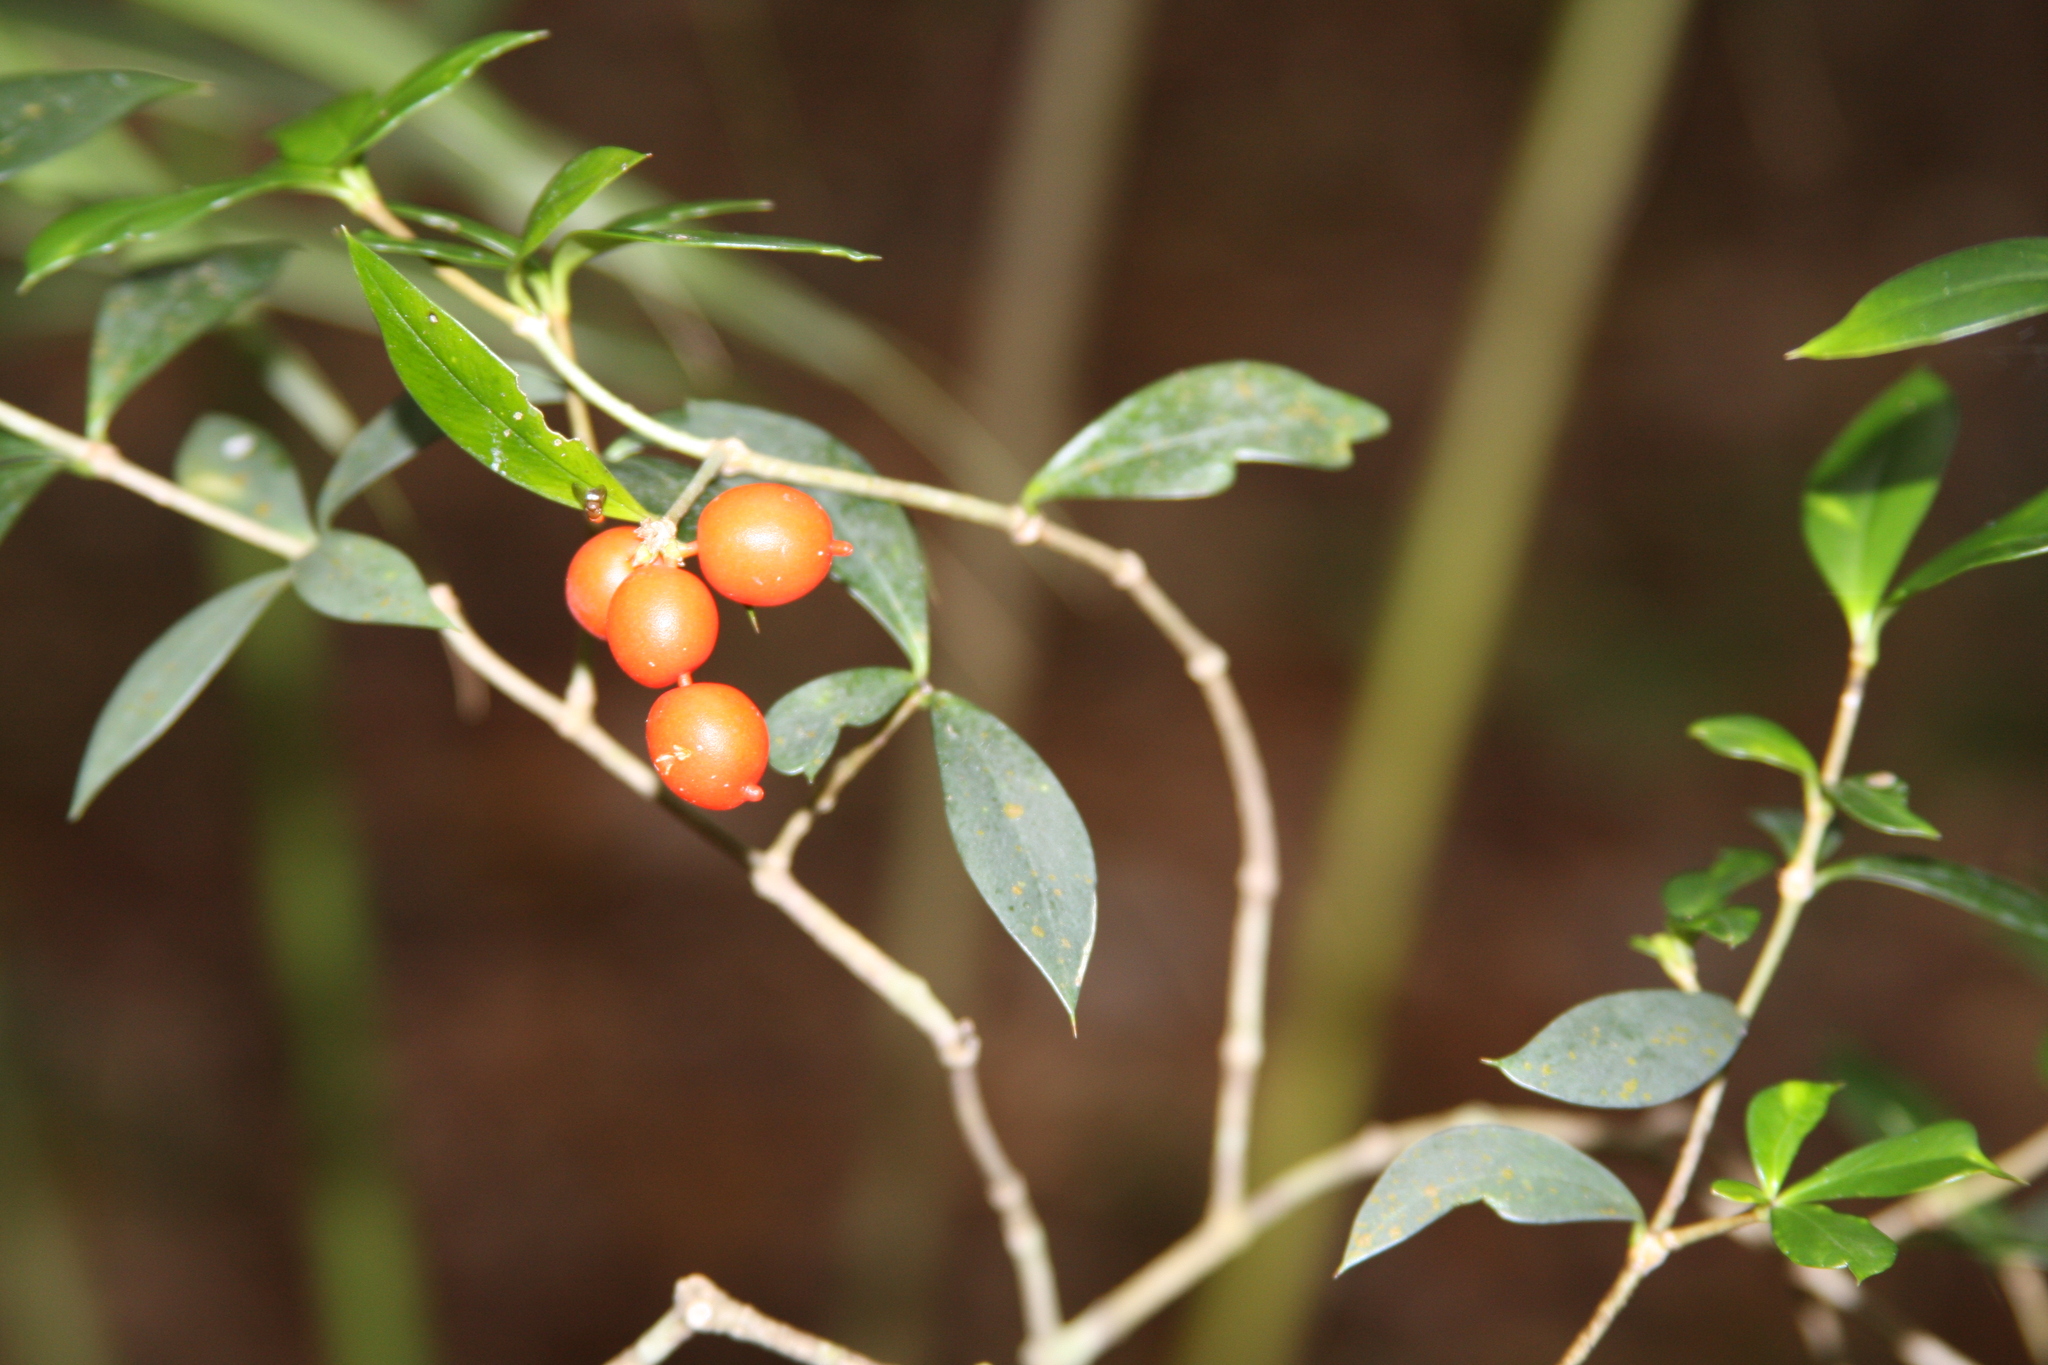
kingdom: Plantae
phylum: Tracheophyta
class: Magnoliopsida
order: Gentianales
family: Apocynaceae
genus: Alyxia
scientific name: Alyxia ruscifolia
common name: Chainfruit
